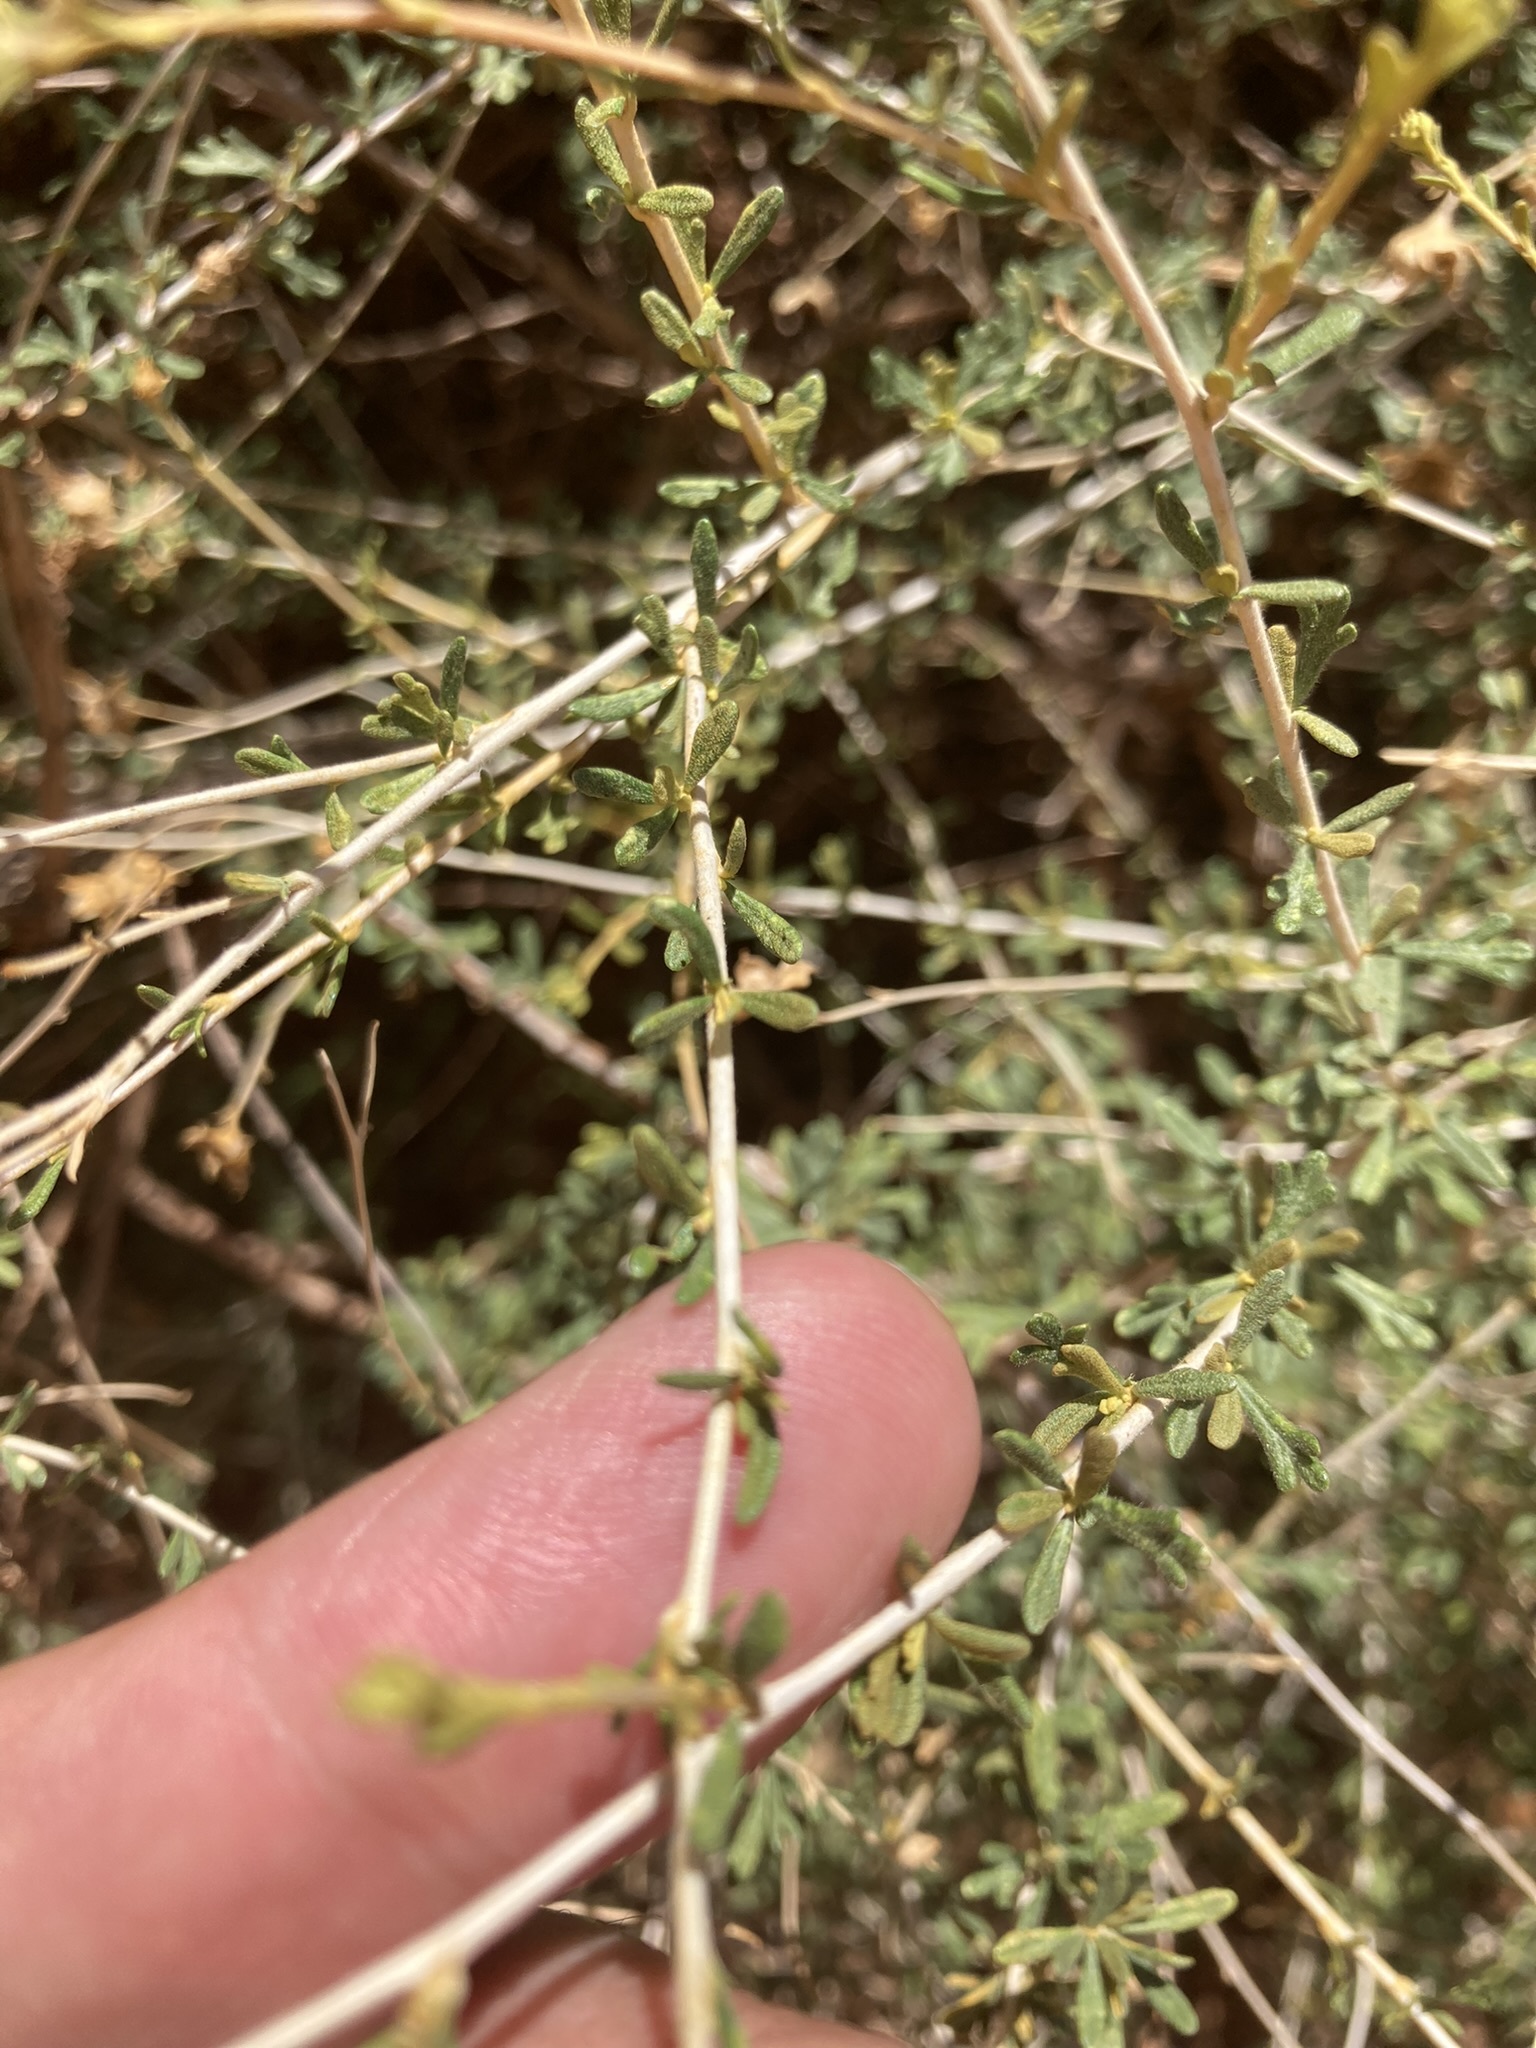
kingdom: Plantae
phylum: Tracheophyta
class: Magnoliopsida
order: Rosales
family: Rosaceae
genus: Fallugia
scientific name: Fallugia paradoxa
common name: Apache-plume
